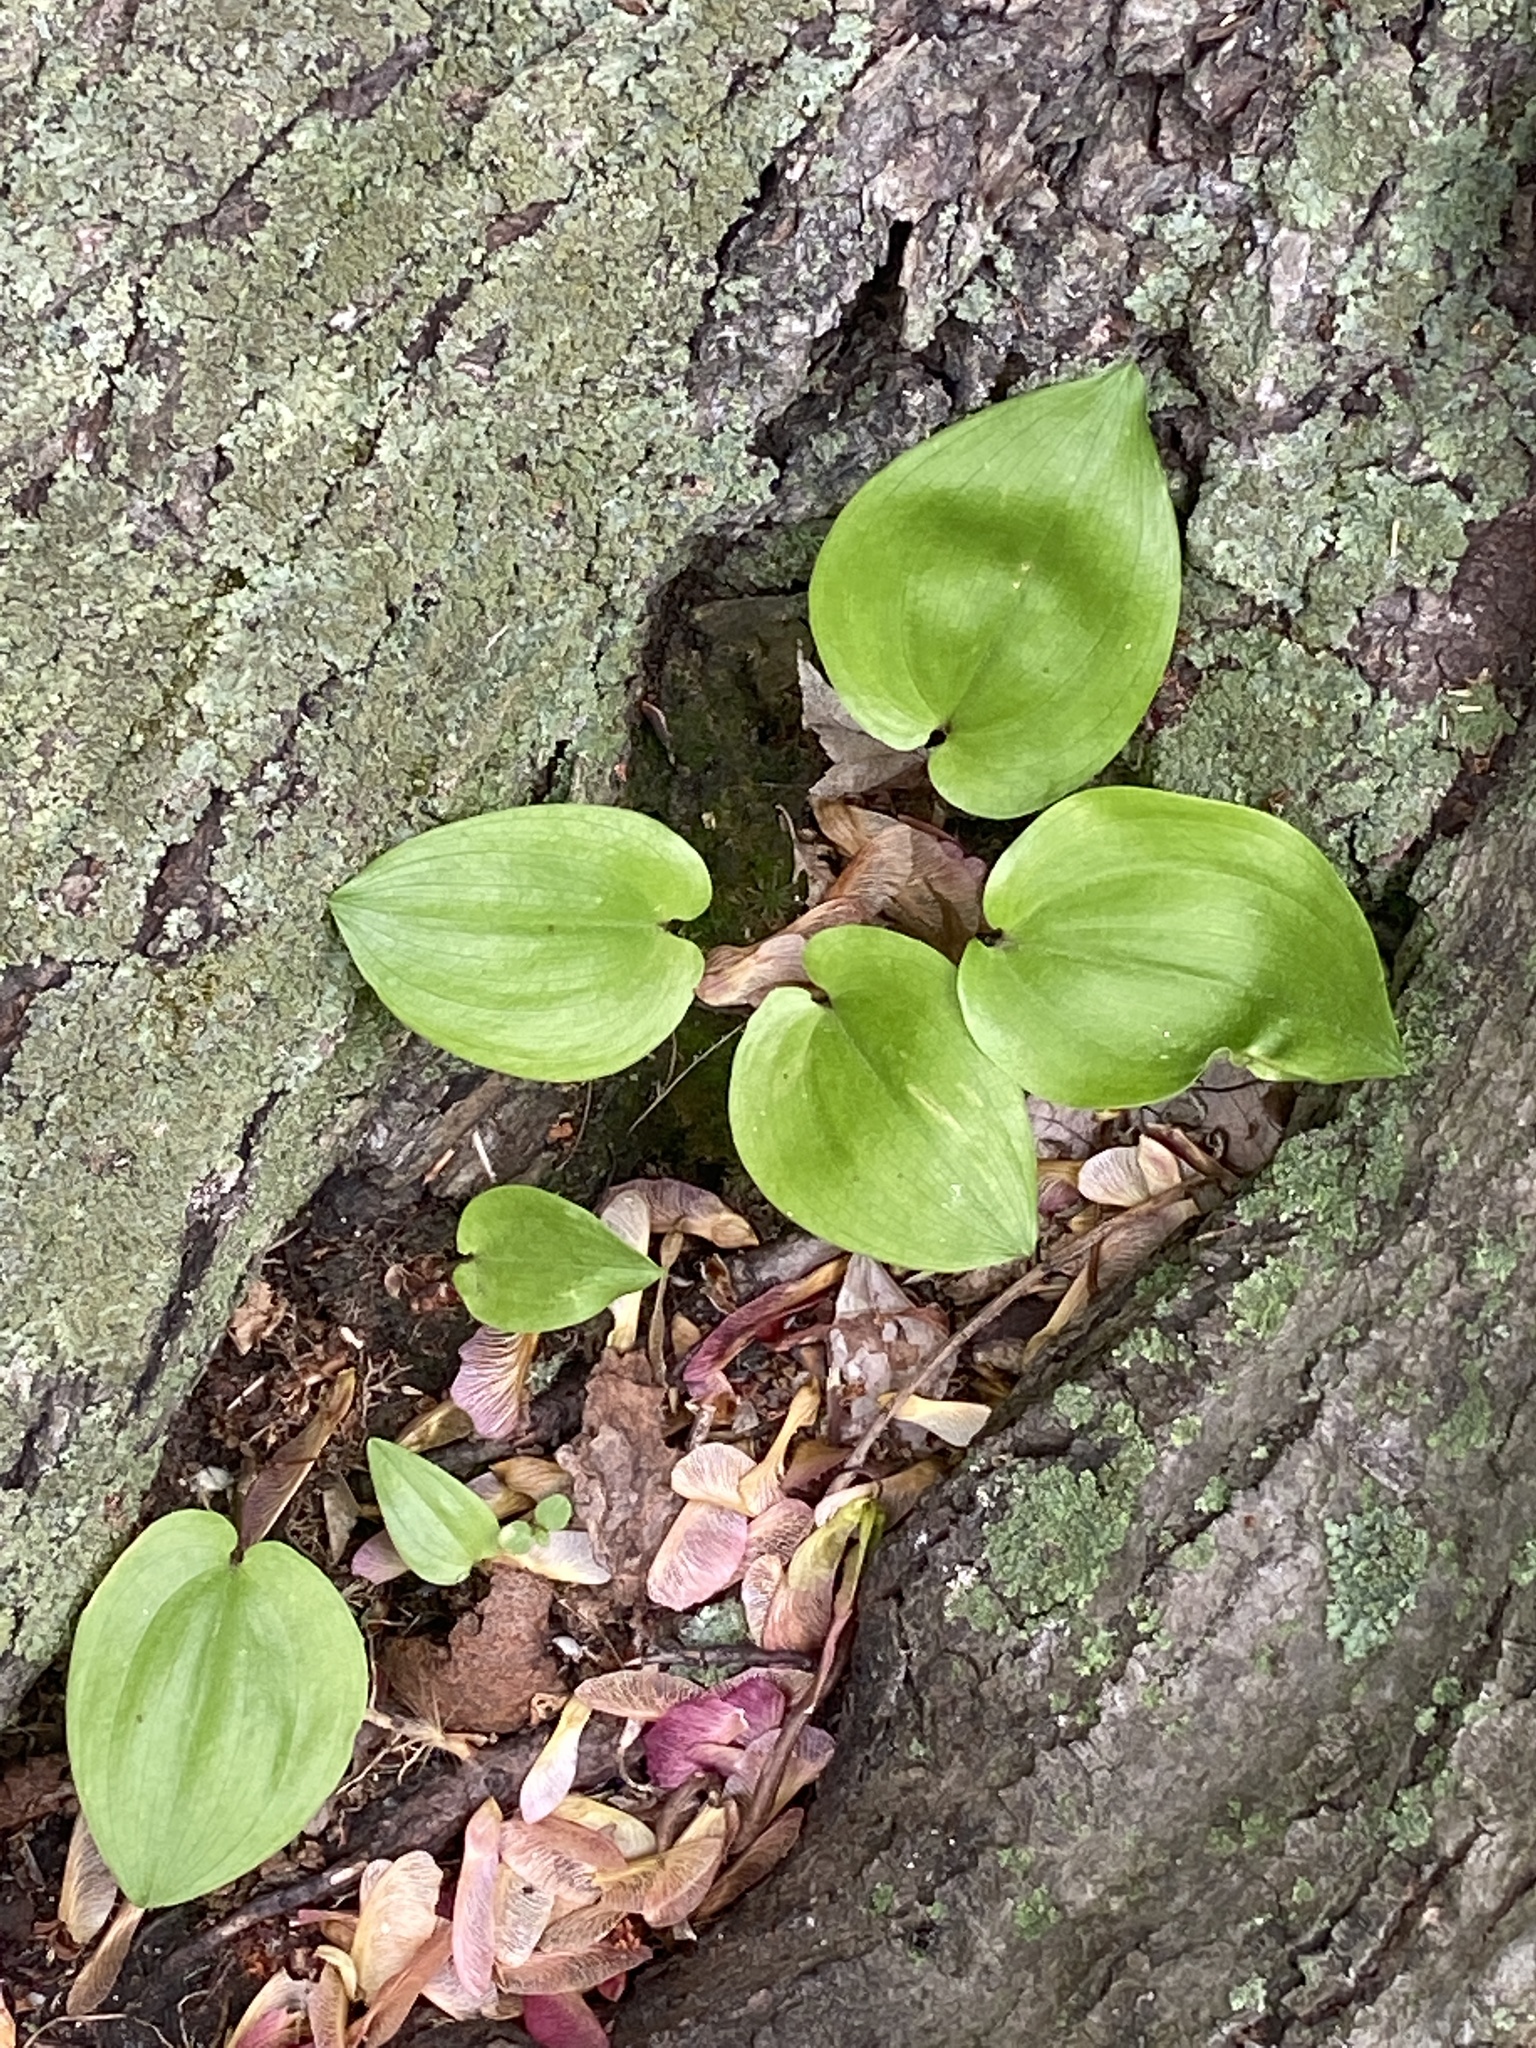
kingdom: Plantae
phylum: Tracheophyta
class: Liliopsida
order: Asparagales
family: Asparagaceae
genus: Maianthemum
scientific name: Maianthemum canadense
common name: False lily-of-the-valley
